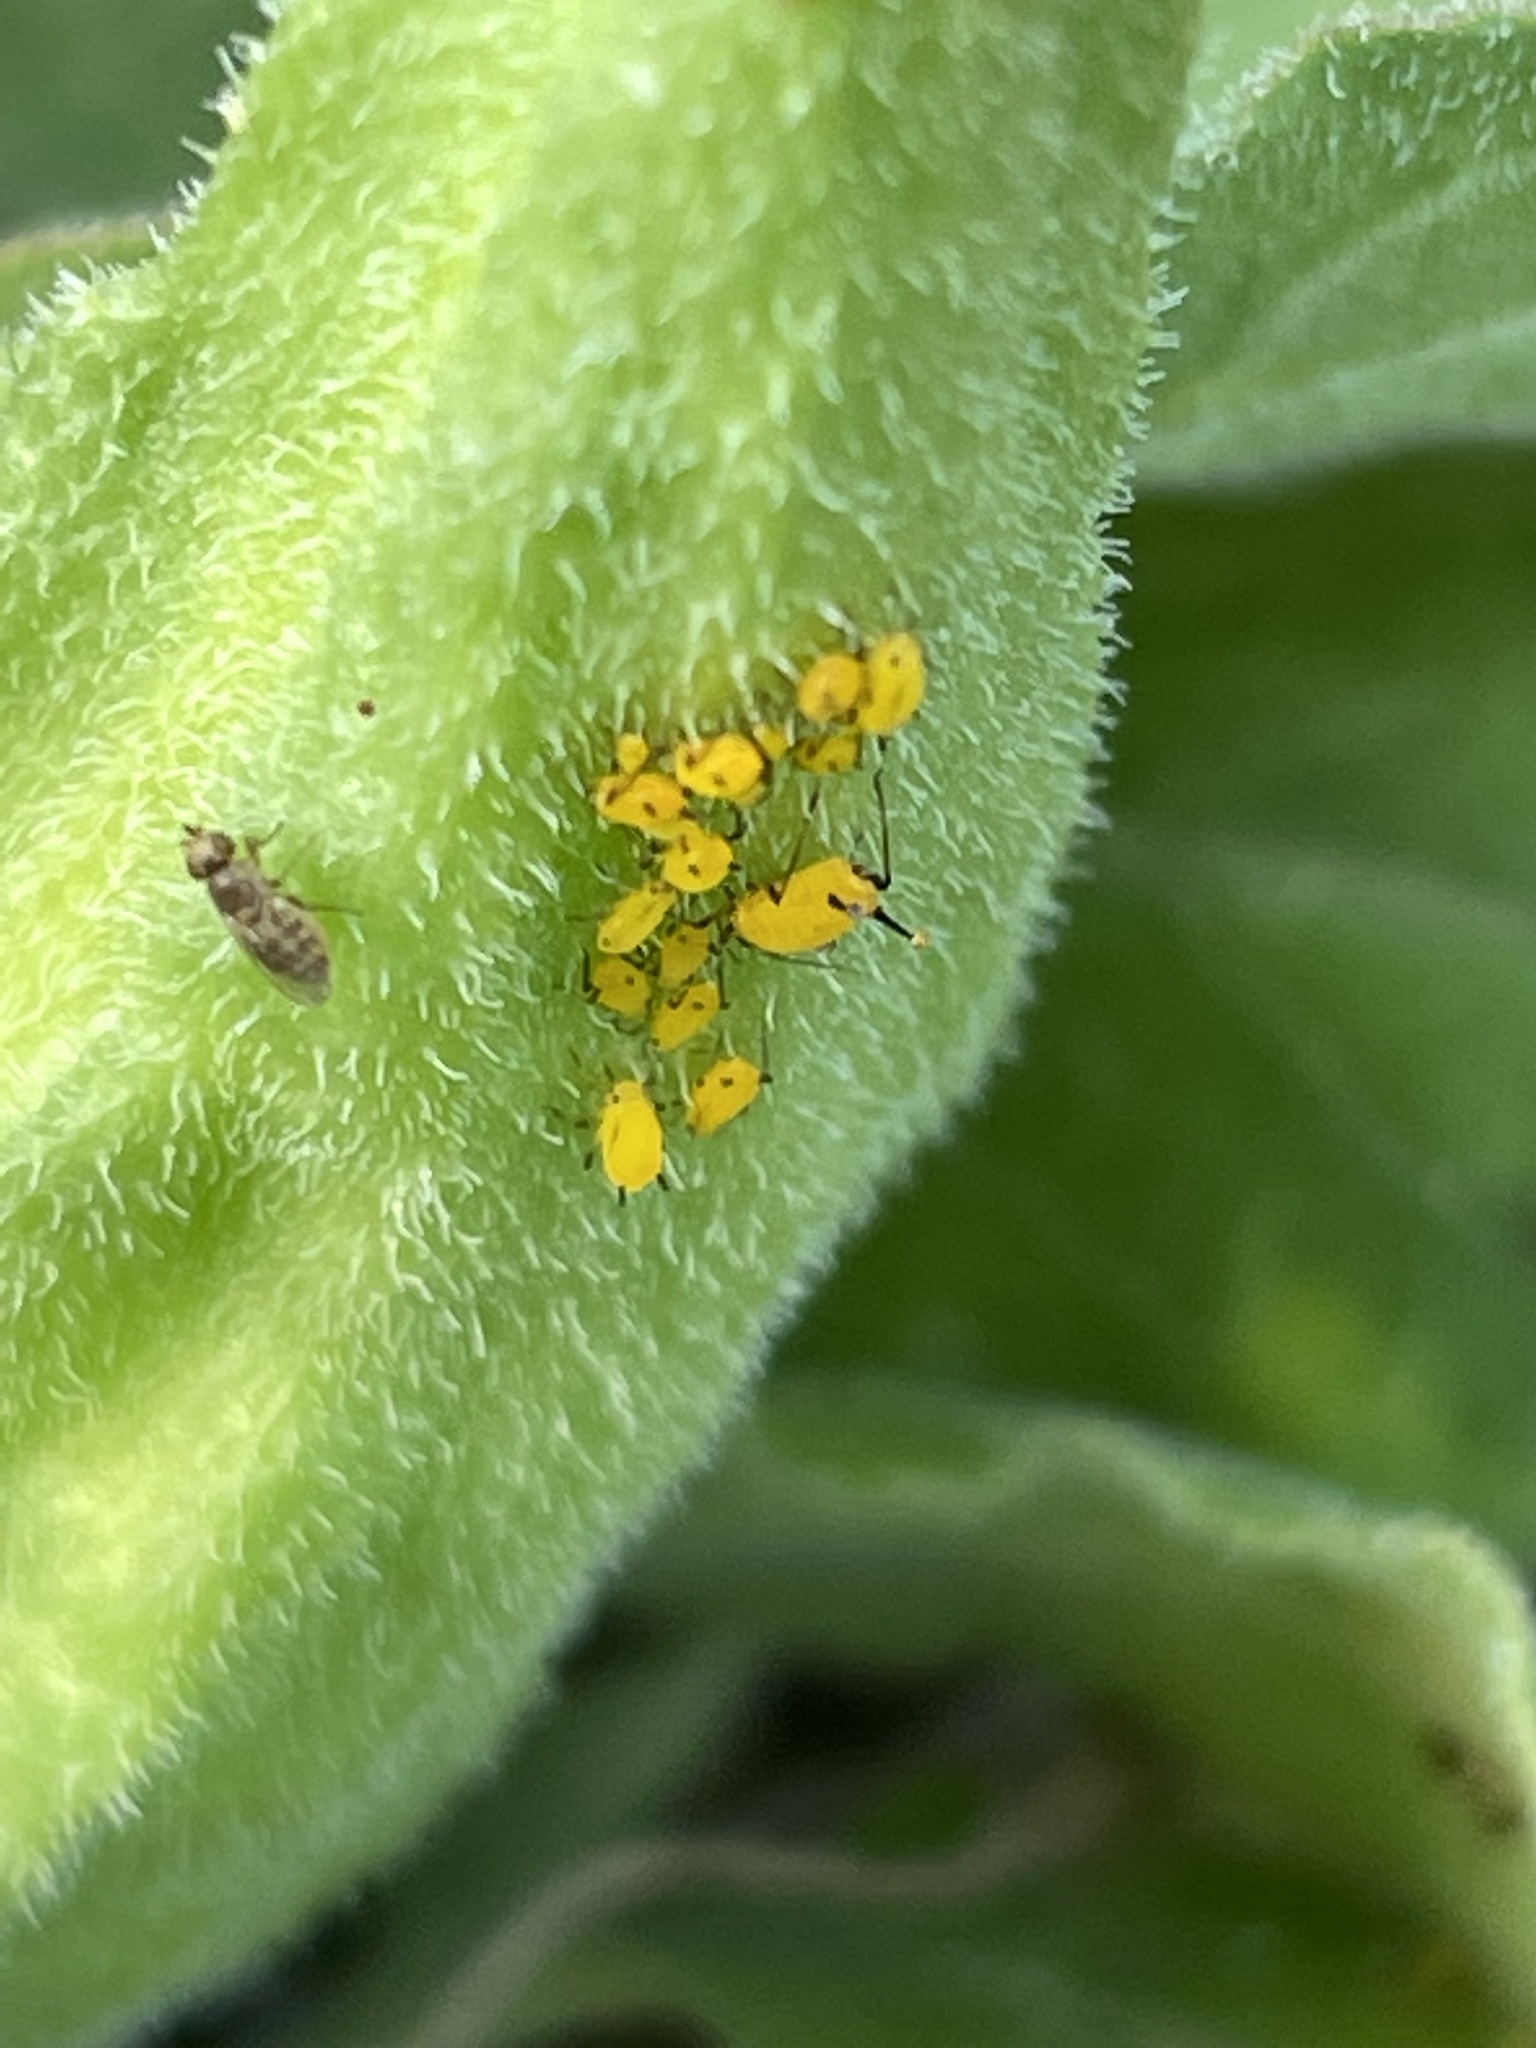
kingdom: Animalia
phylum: Arthropoda
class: Insecta
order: Hemiptera
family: Aphididae
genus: Aphis
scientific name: Aphis nerii
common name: Oleander aphid
